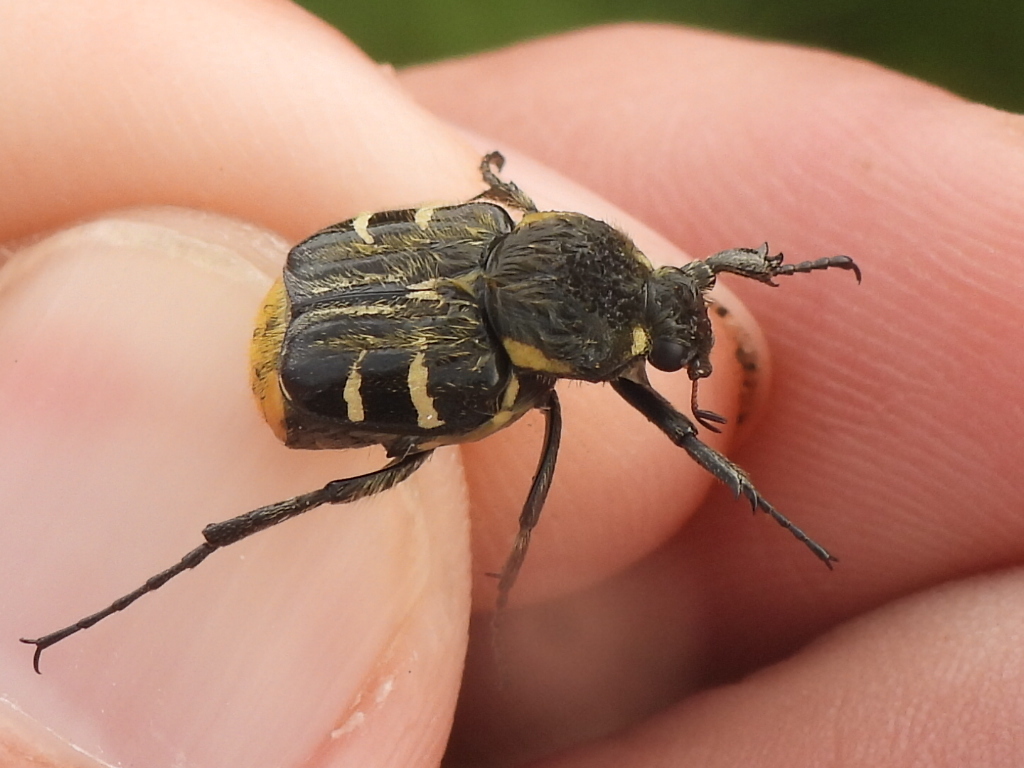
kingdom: Animalia
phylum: Arthropoda
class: Insecta
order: Coleoptera
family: Scarabaeidae
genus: Trichiotinus
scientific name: Trichiotinus texanus
